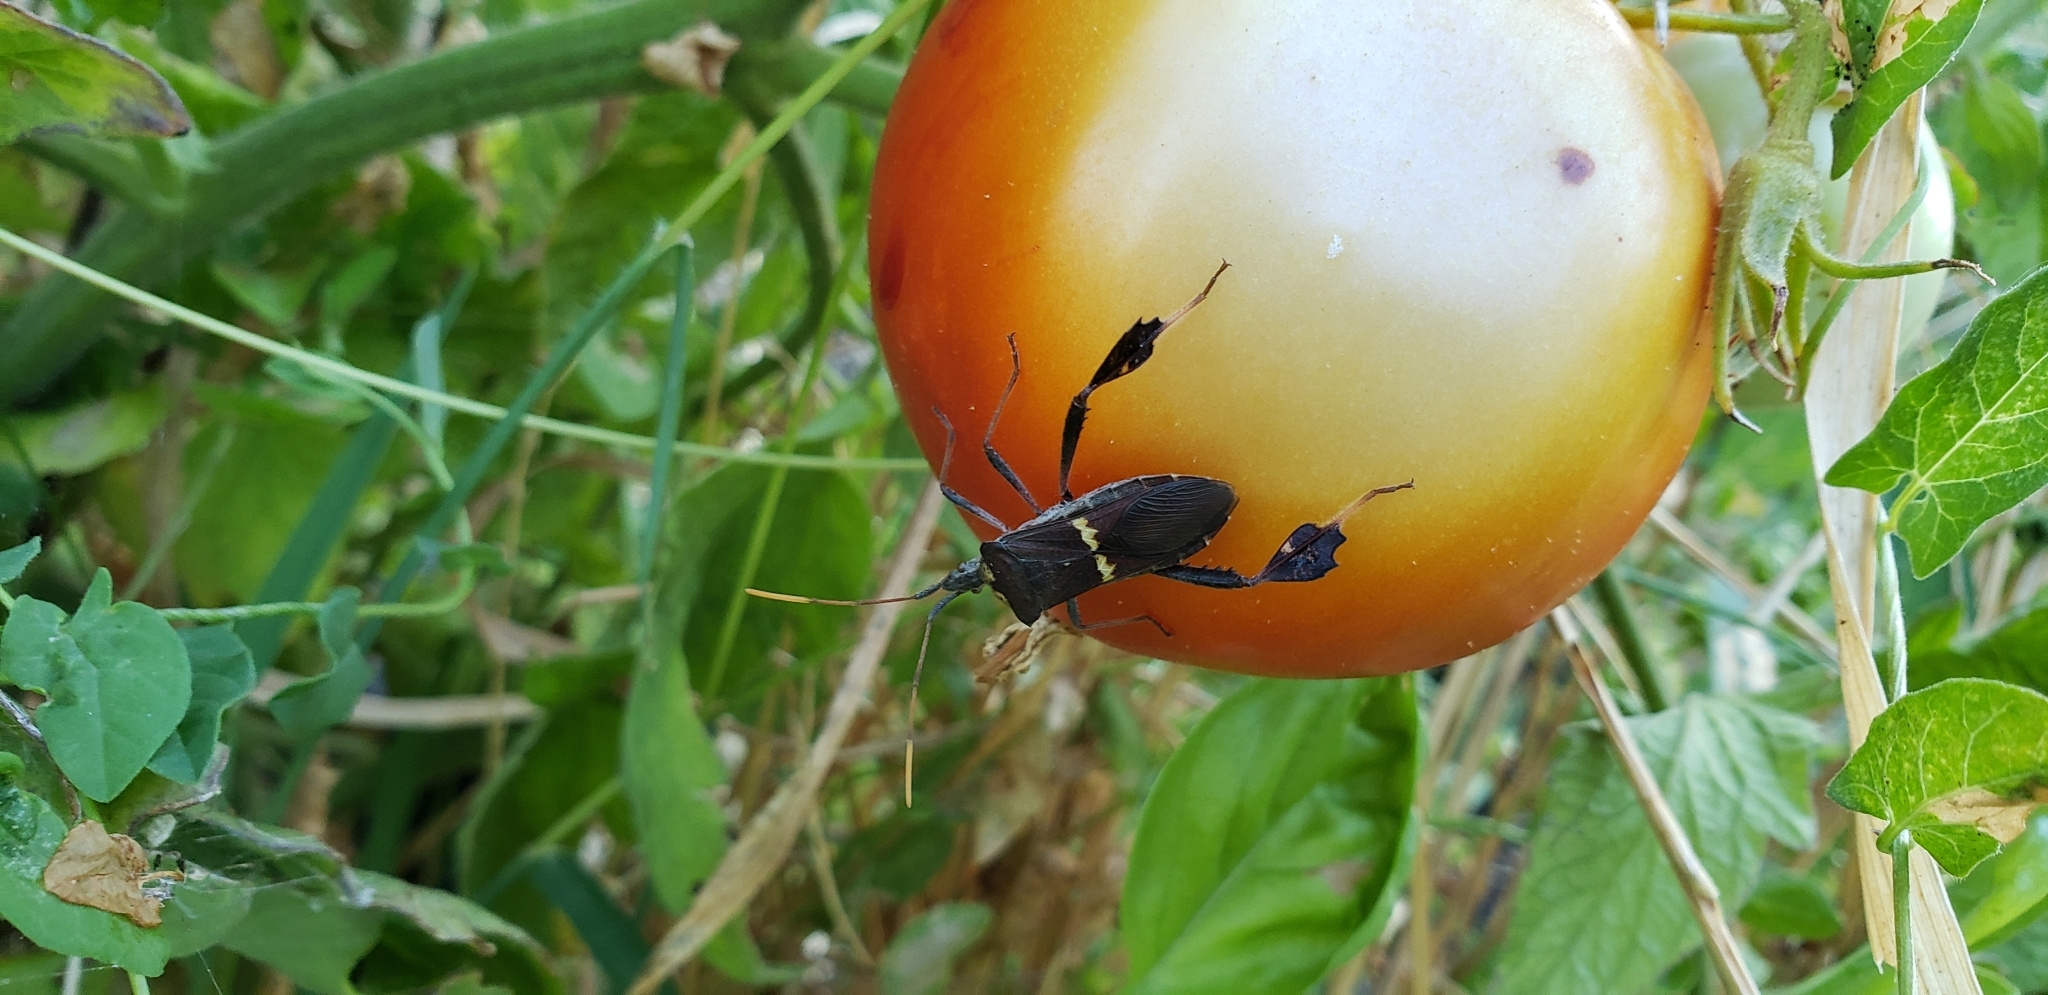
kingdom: Animalia
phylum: Arthropoda
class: Insecta
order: Hemiptera
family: Coreidae
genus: Leptoglossus
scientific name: Leptoglossus zonatus
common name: Large-legged bug
